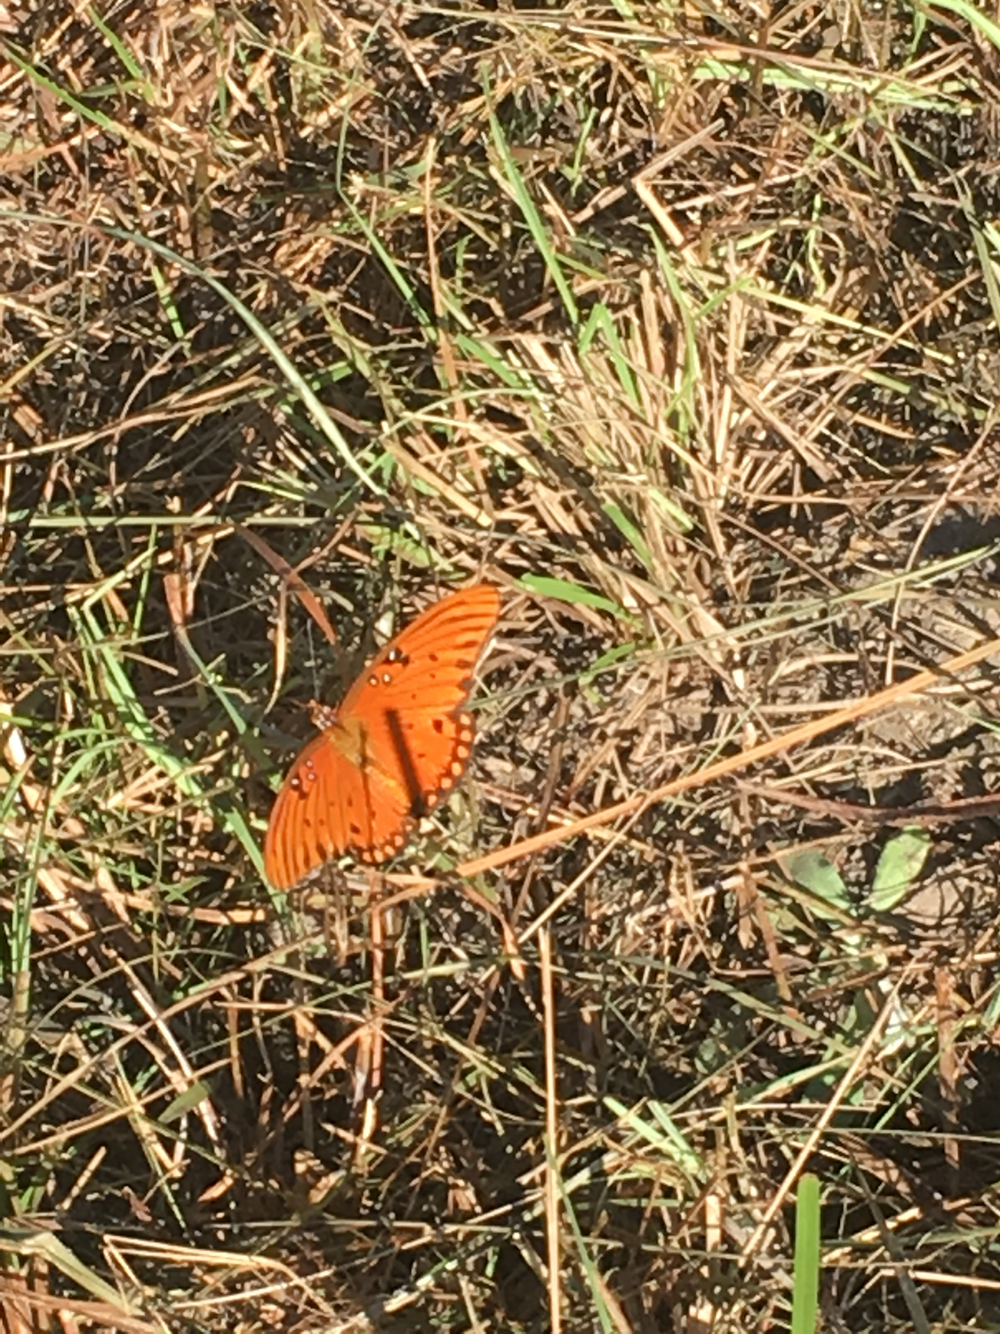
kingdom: Animalia
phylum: Arthropoda
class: Insecta
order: Lepidoptera
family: Nymphalidae
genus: Dione
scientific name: Dione vanillae
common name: Gulf fritillary
